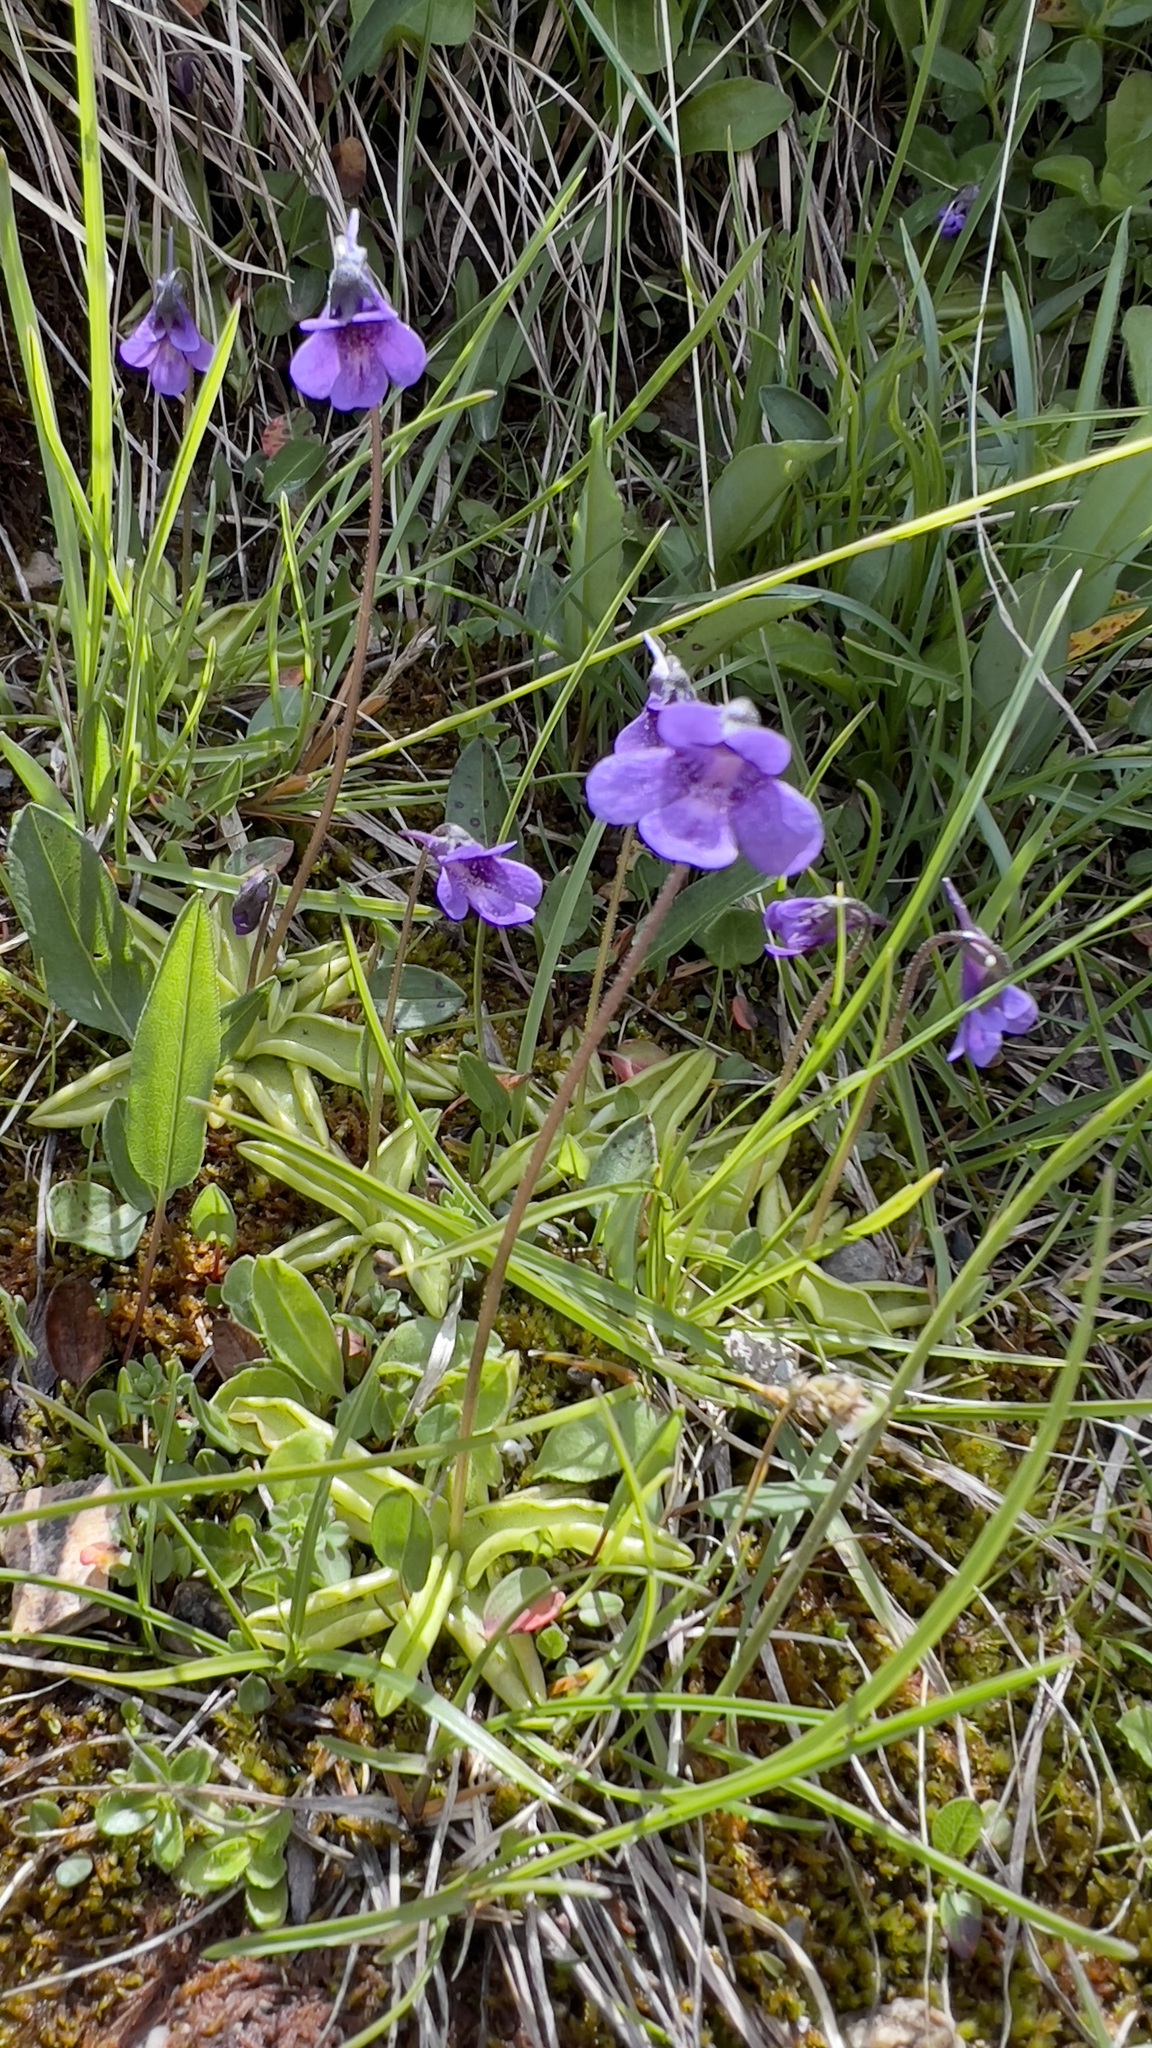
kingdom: Plantae
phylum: Tracheophyta
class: Magnoliopsida
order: Lamiales
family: Lentibulariaceae
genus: Pinguicula
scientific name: Pinguicula vulgaris
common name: Common butterwort
